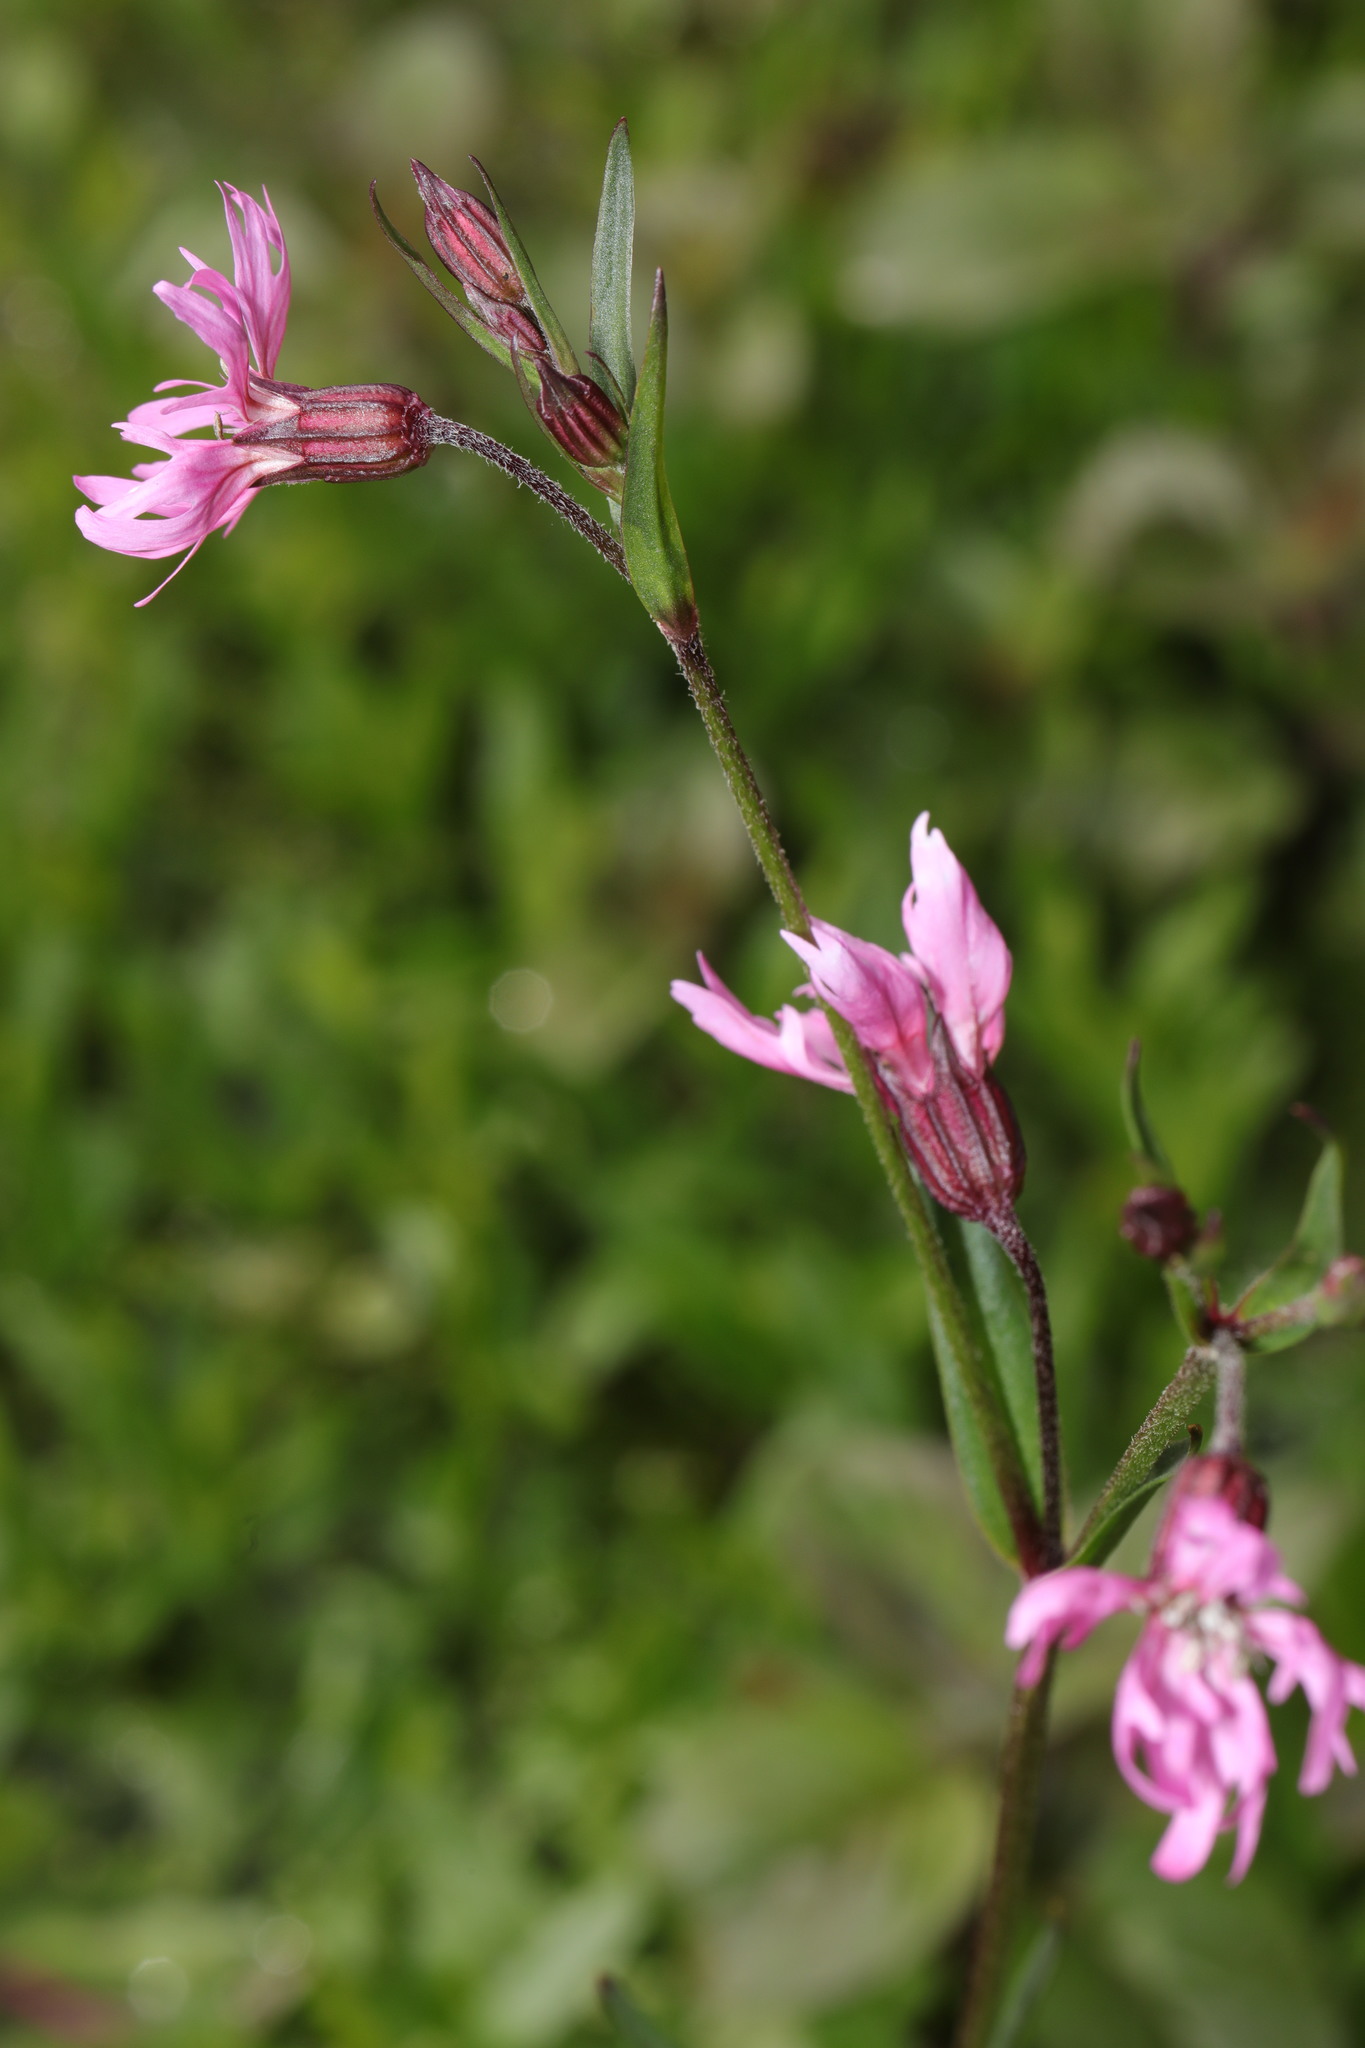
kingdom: Plantae
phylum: Tracheophyta
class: Magnoliopsida
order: Caryophyllales
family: Caryophyllaceae
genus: Silene
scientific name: Silene flos-cuculi
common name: Ragged-robin
